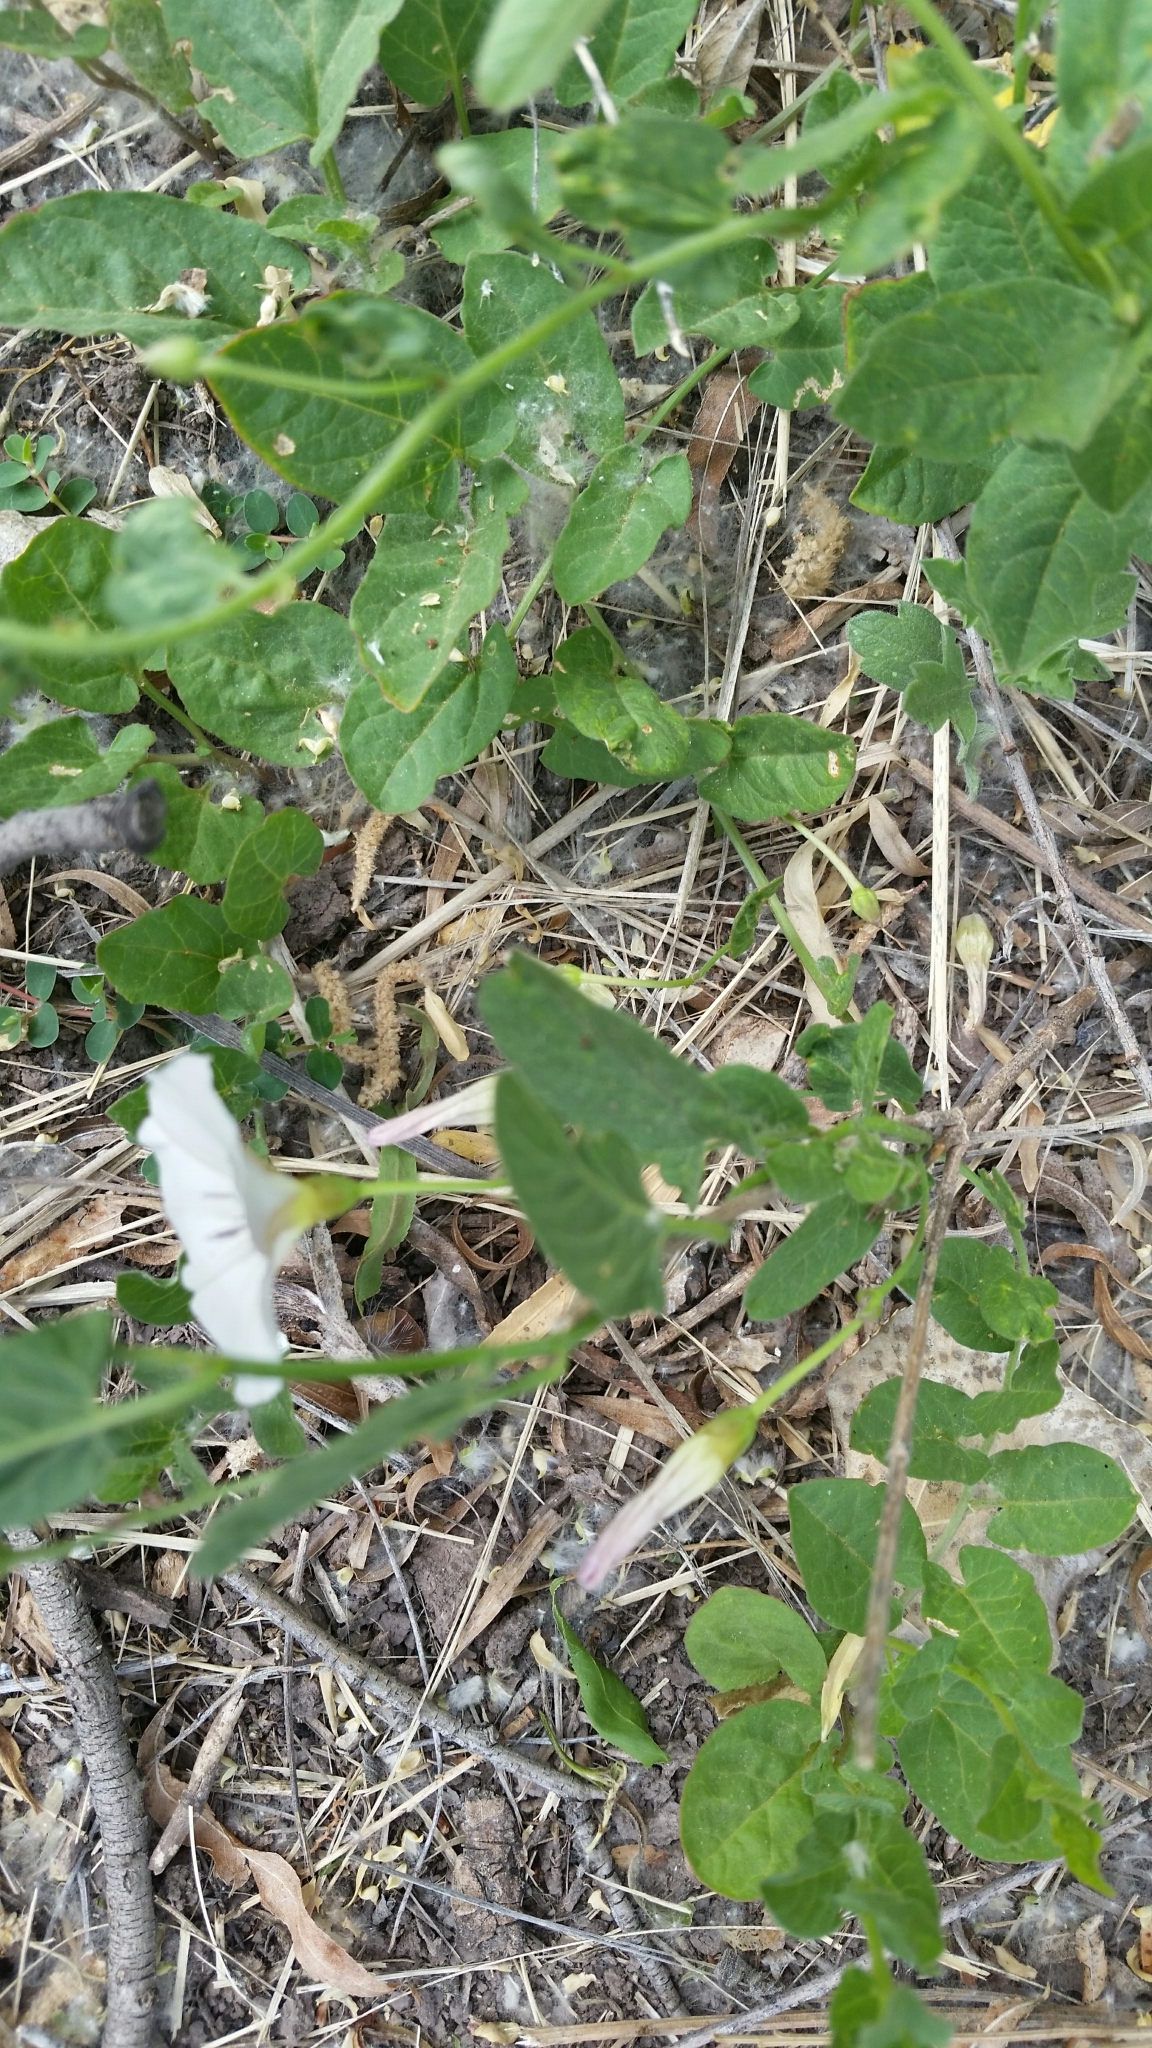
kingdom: Plantae
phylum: Tracheophyta
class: Magnoliopsida
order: Solanales
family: Convolvulaceae
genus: Convolvulus
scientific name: Convolvulus arvensis
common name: Field bindweed
